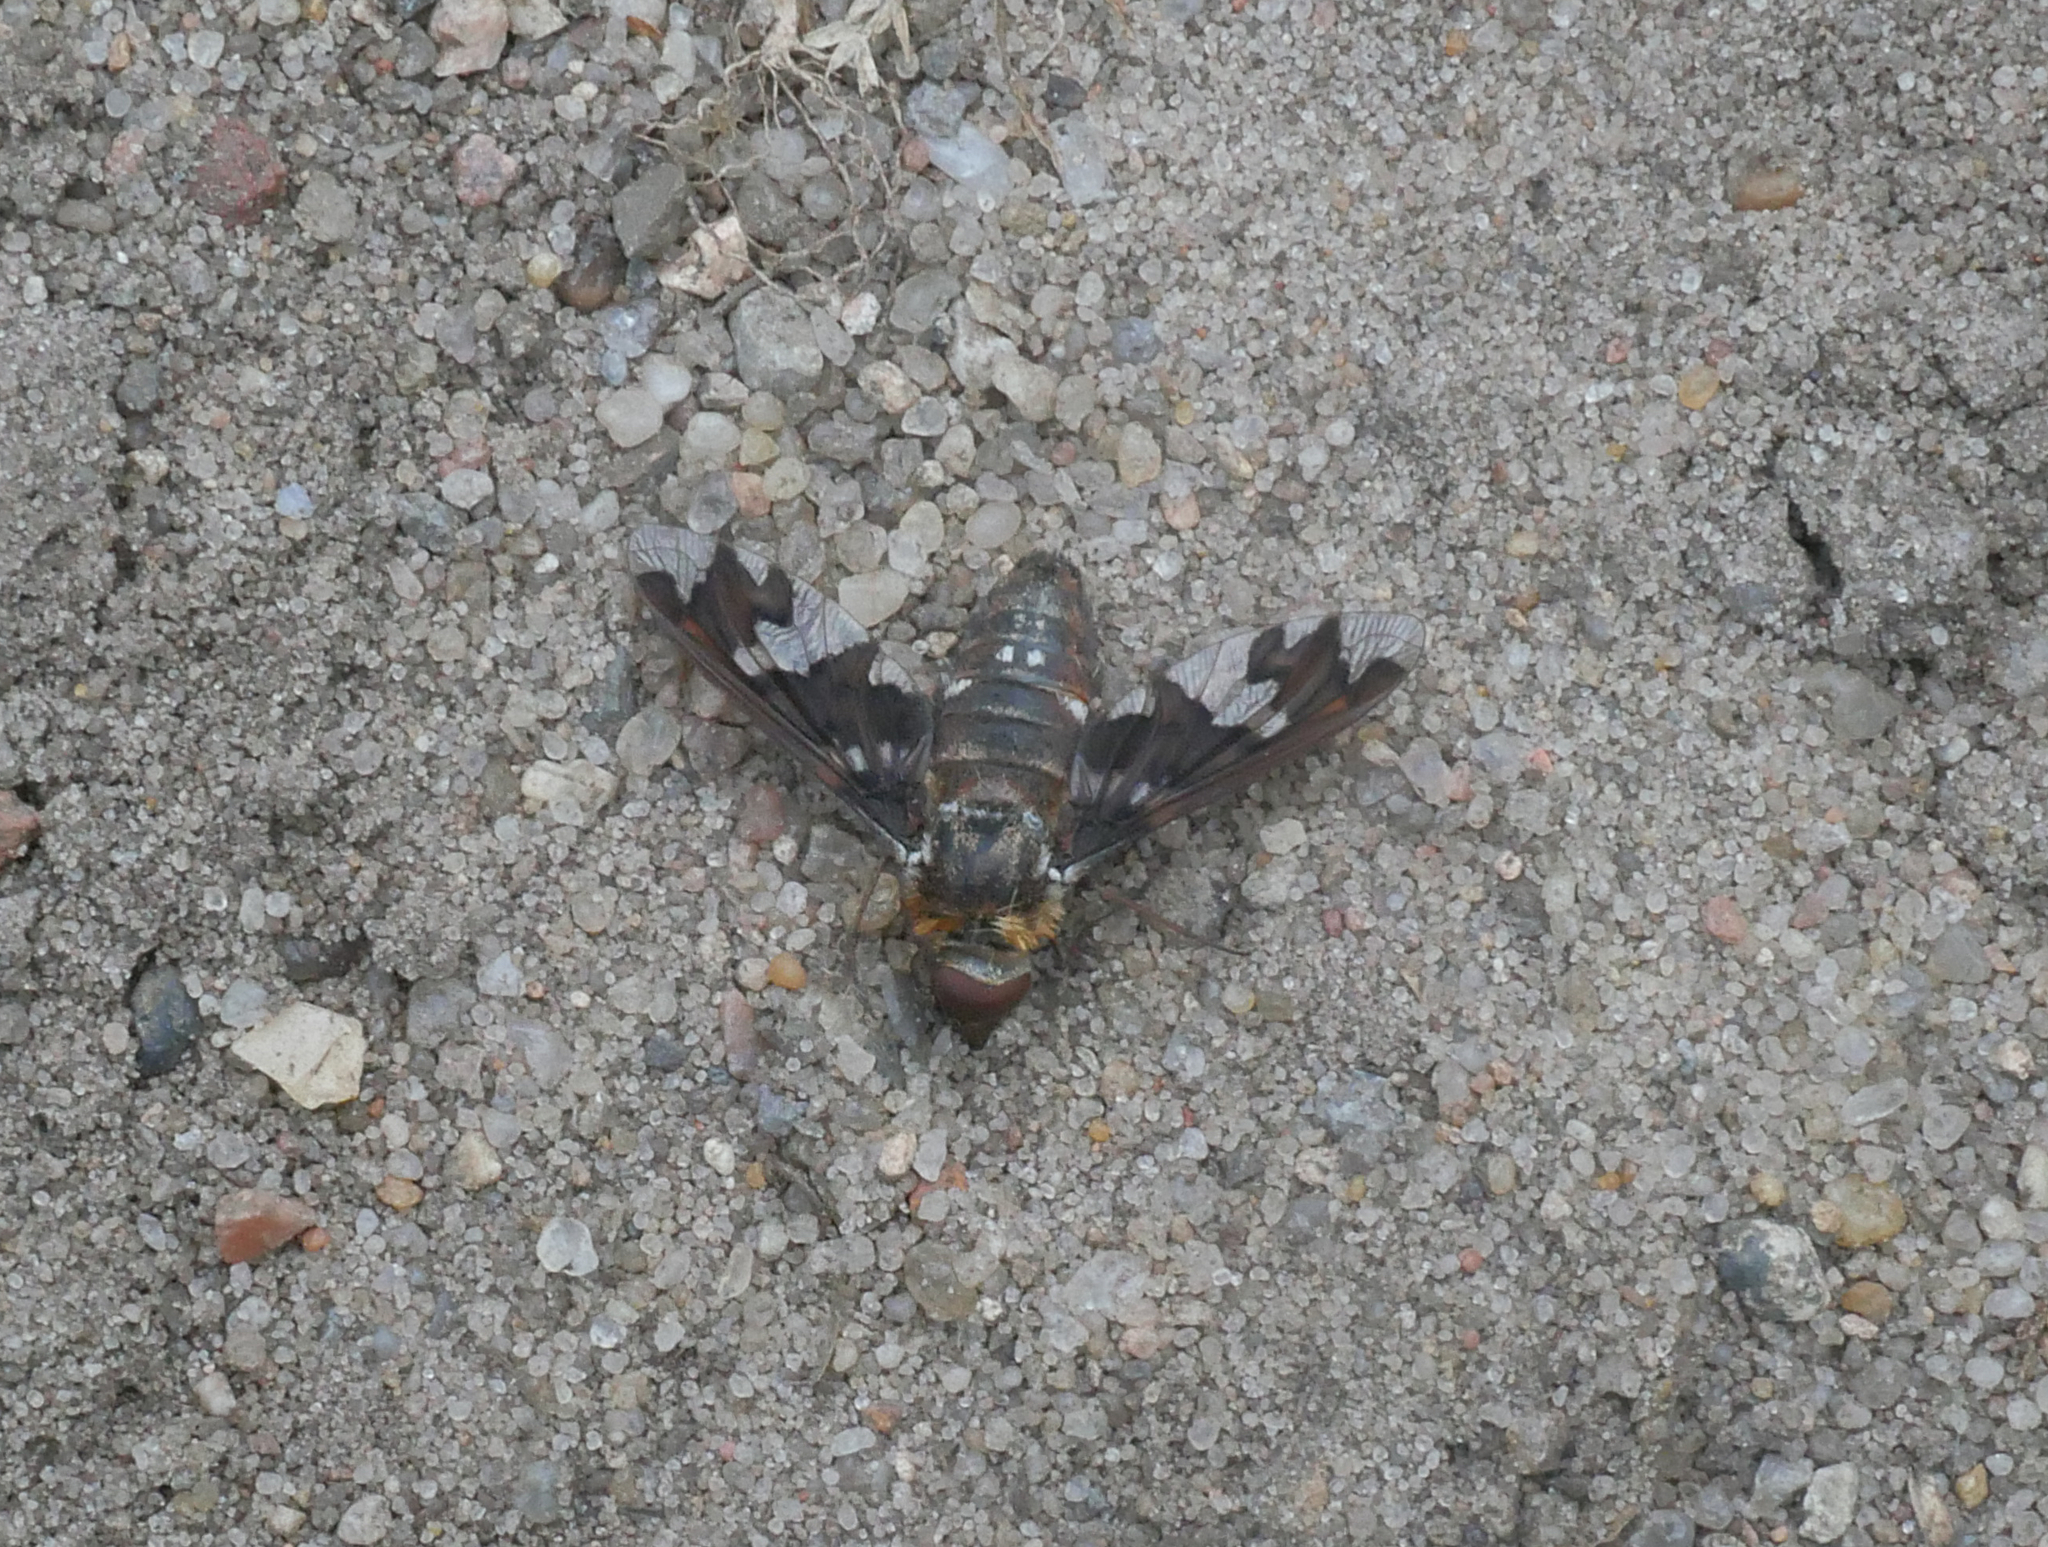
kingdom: Animalia
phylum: Arthropoda
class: Insecta
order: Diptera
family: Bombyliidae
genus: Exoprosopa
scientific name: Exoprosopa capucina
